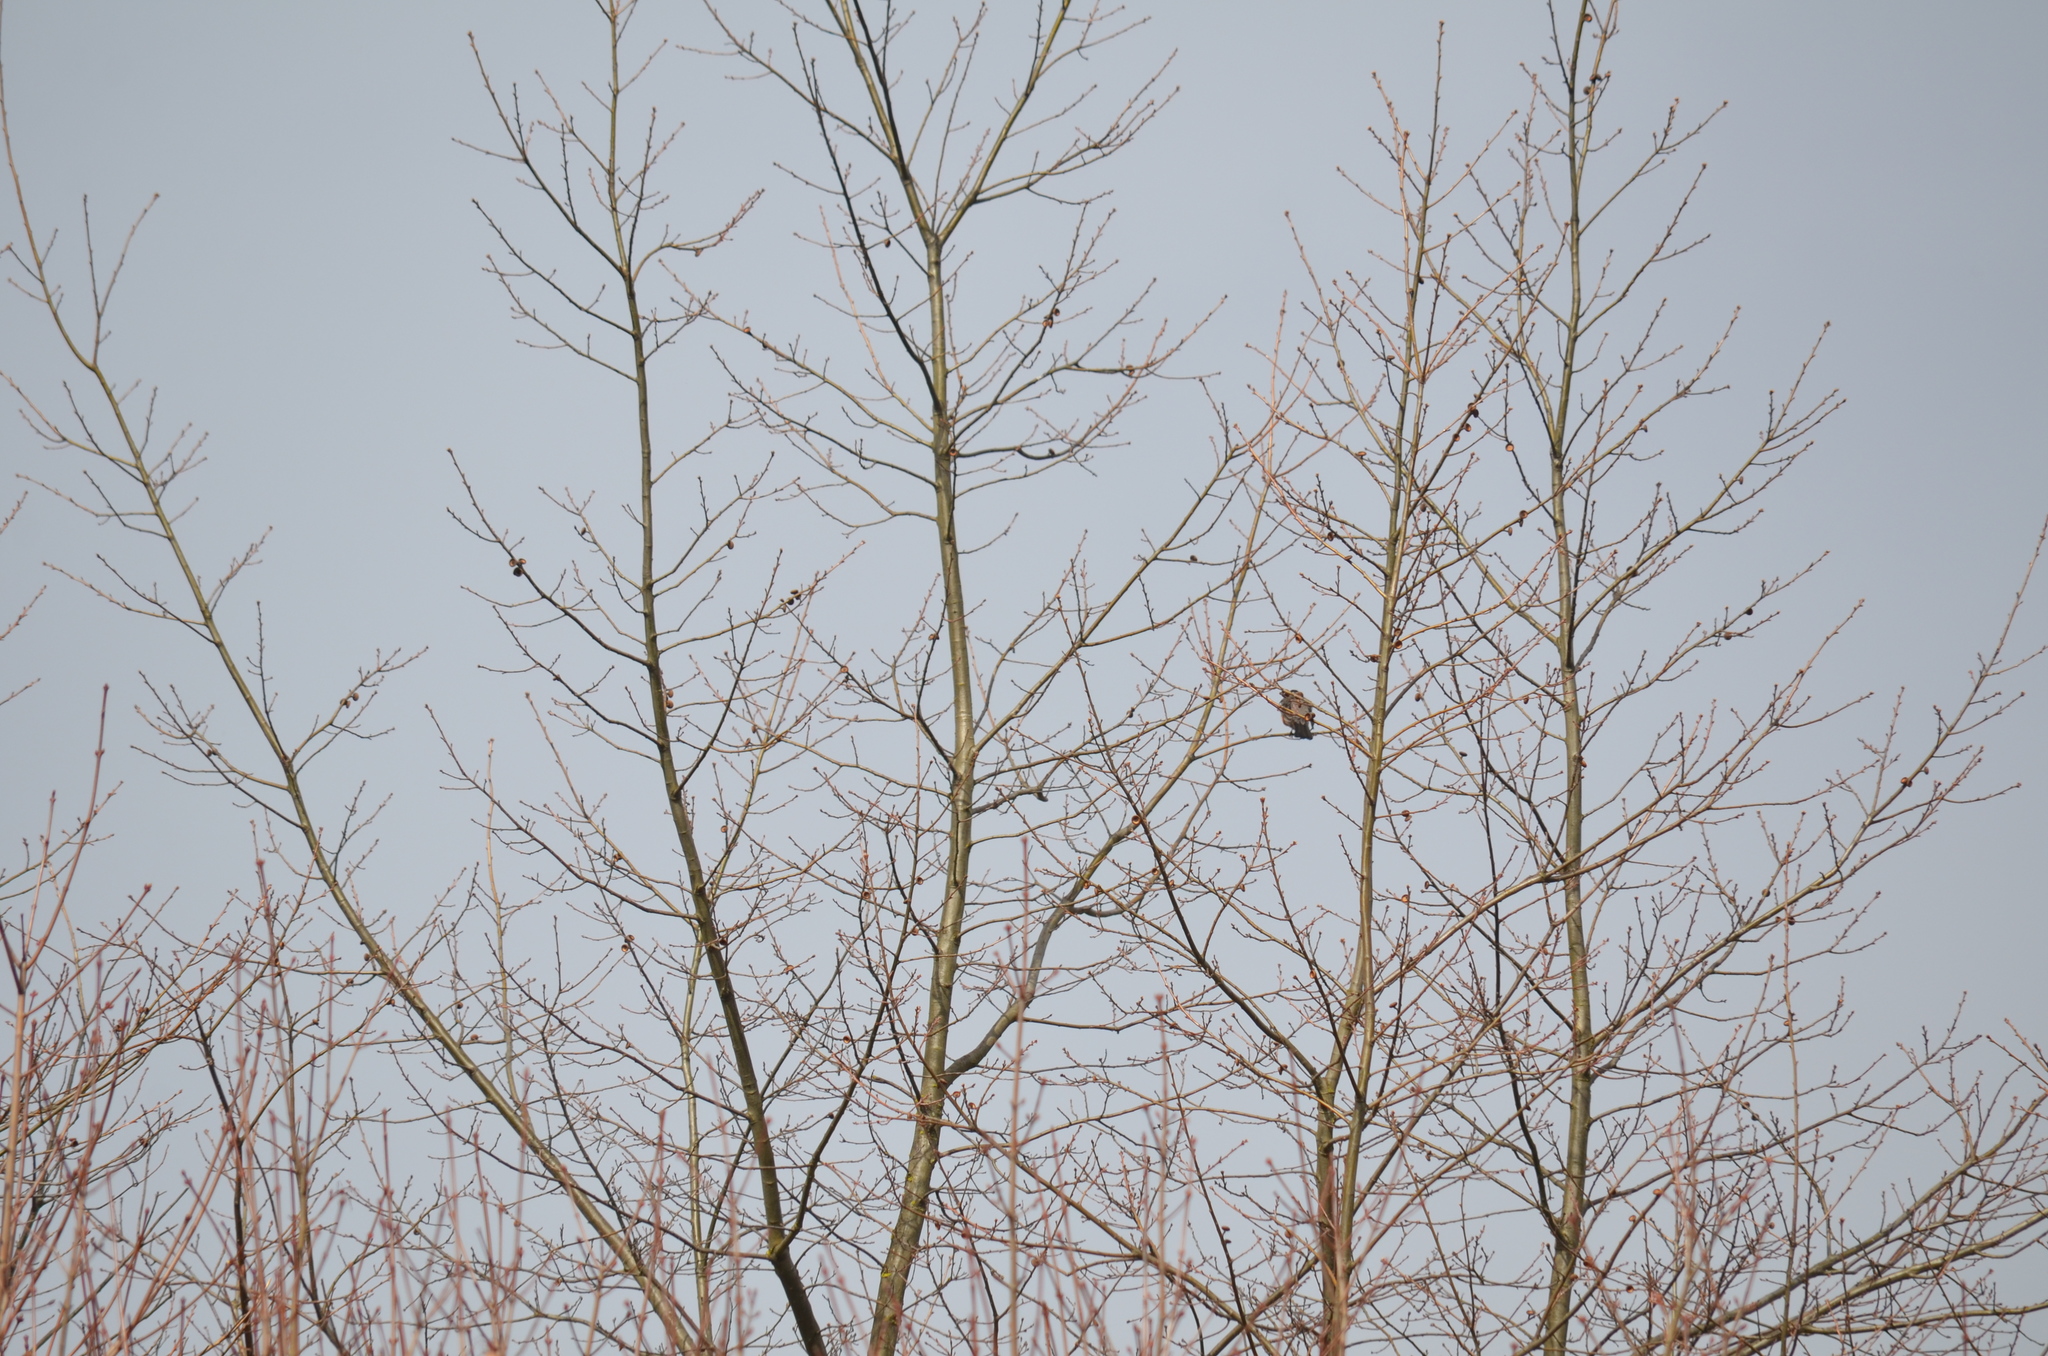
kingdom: Animalia
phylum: Chordata
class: Aves
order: Passeriformes
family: Turdidae
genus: Turdus
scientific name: Turdus migratorius
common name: American robin
